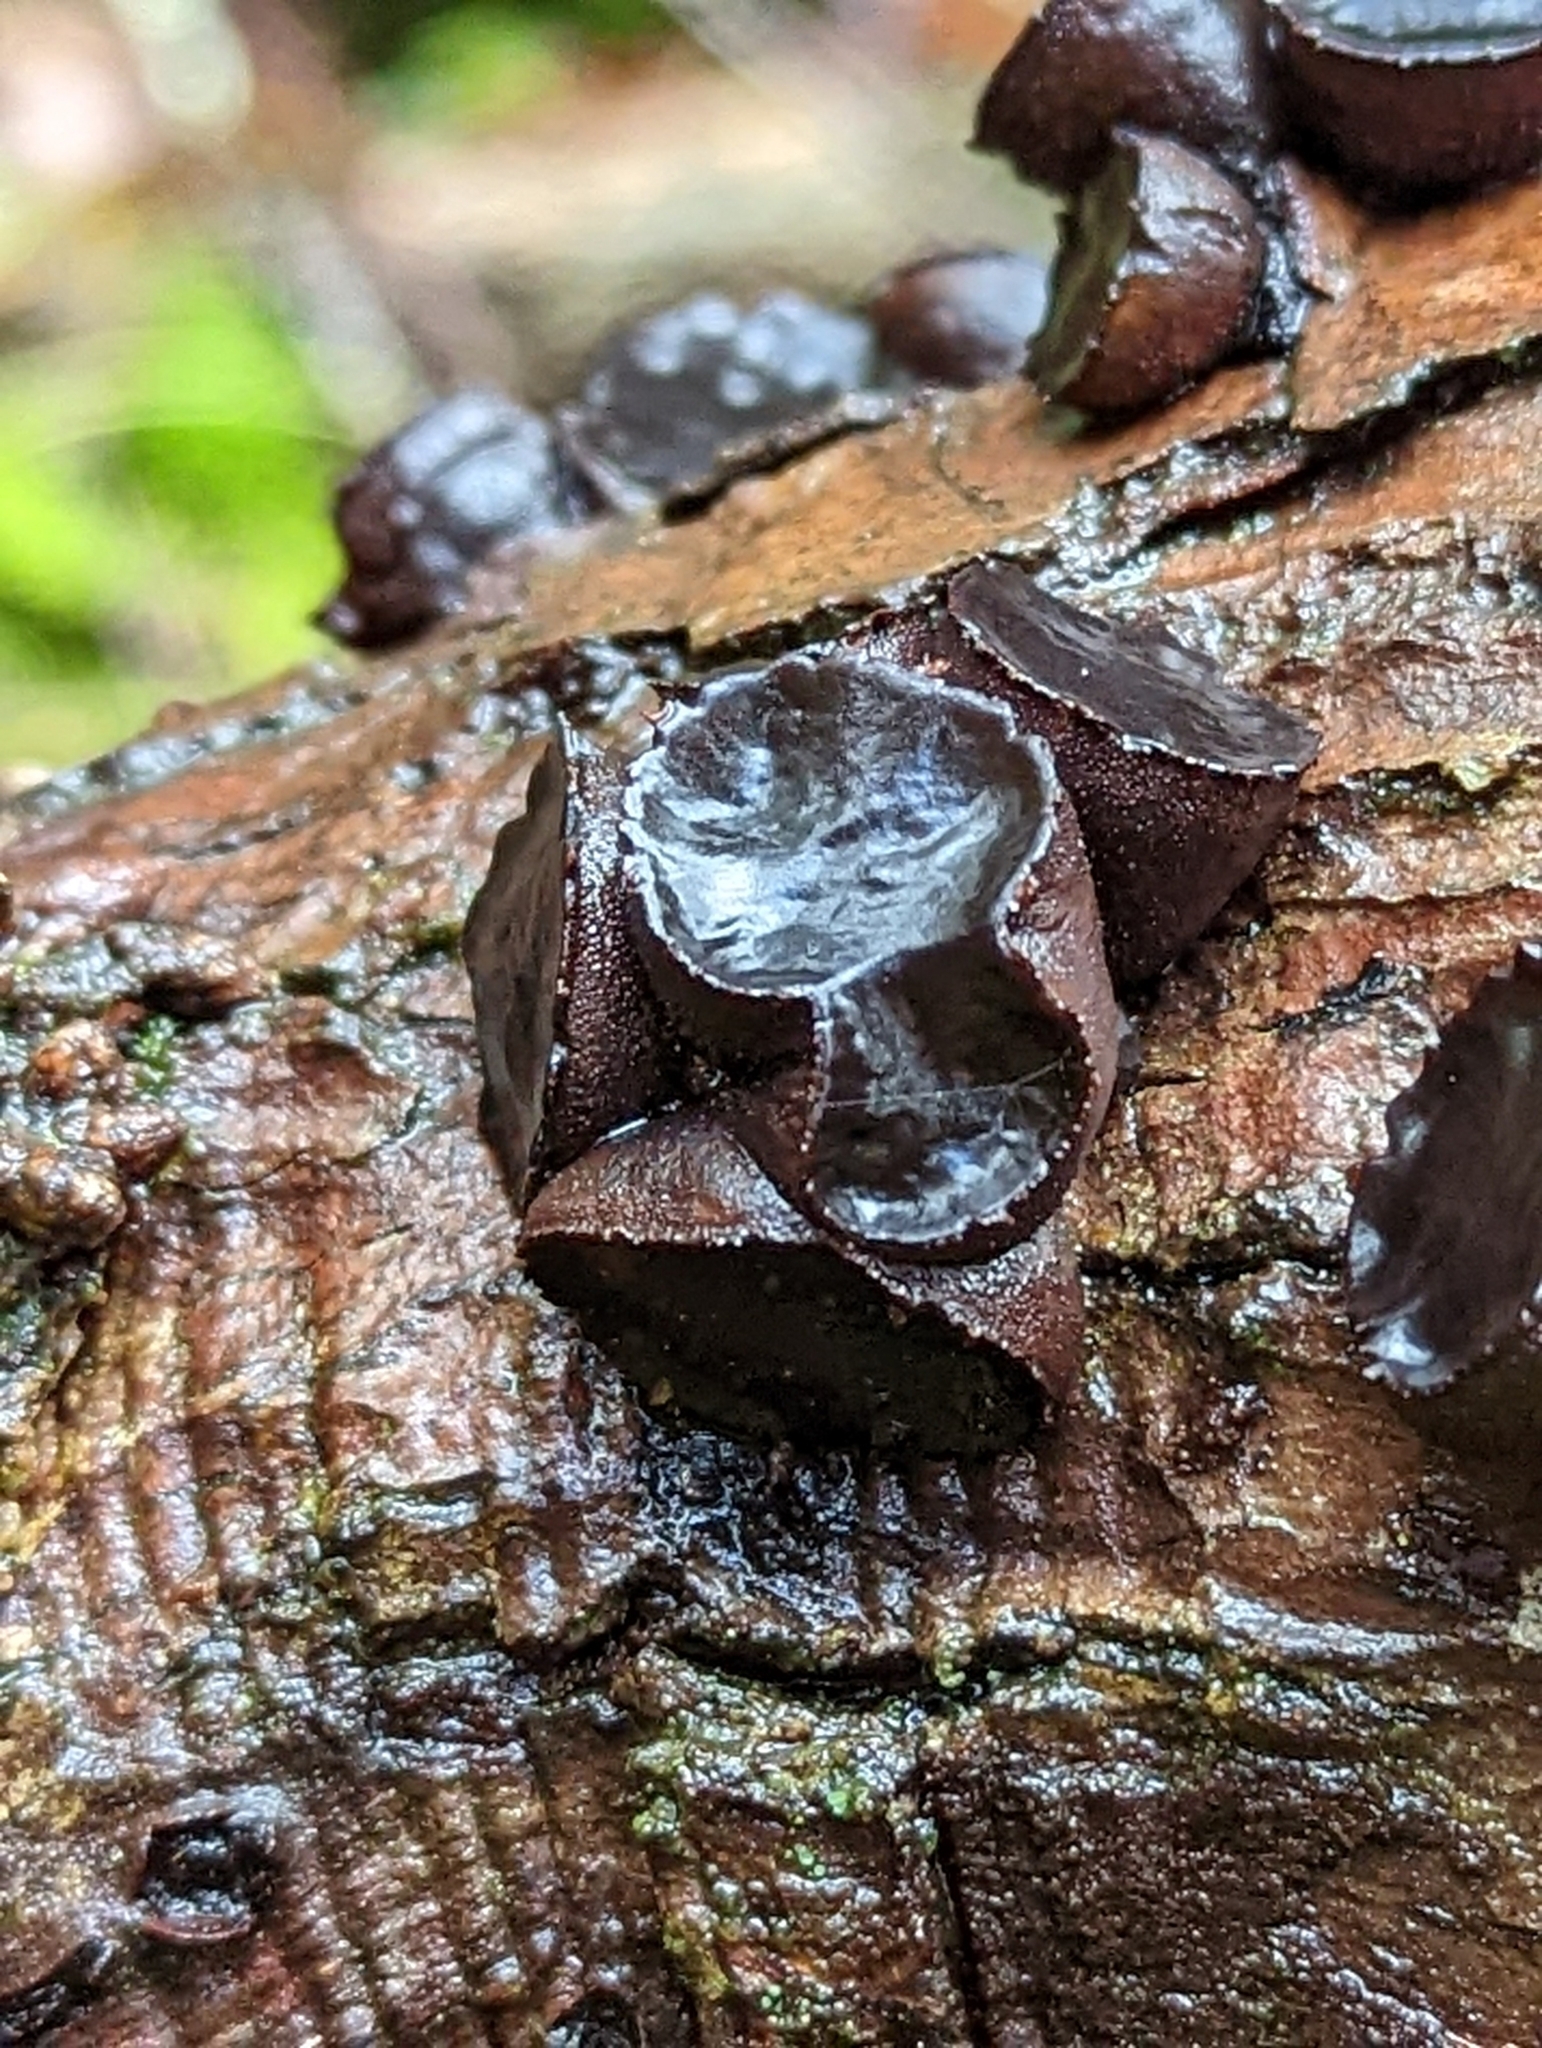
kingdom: Fungi
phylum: Ascomycota
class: Leotiomycetes
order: Phacidiales
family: Phacidiaceae
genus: Bulgaria
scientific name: Bulgaria inquinans
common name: Black bulgar
